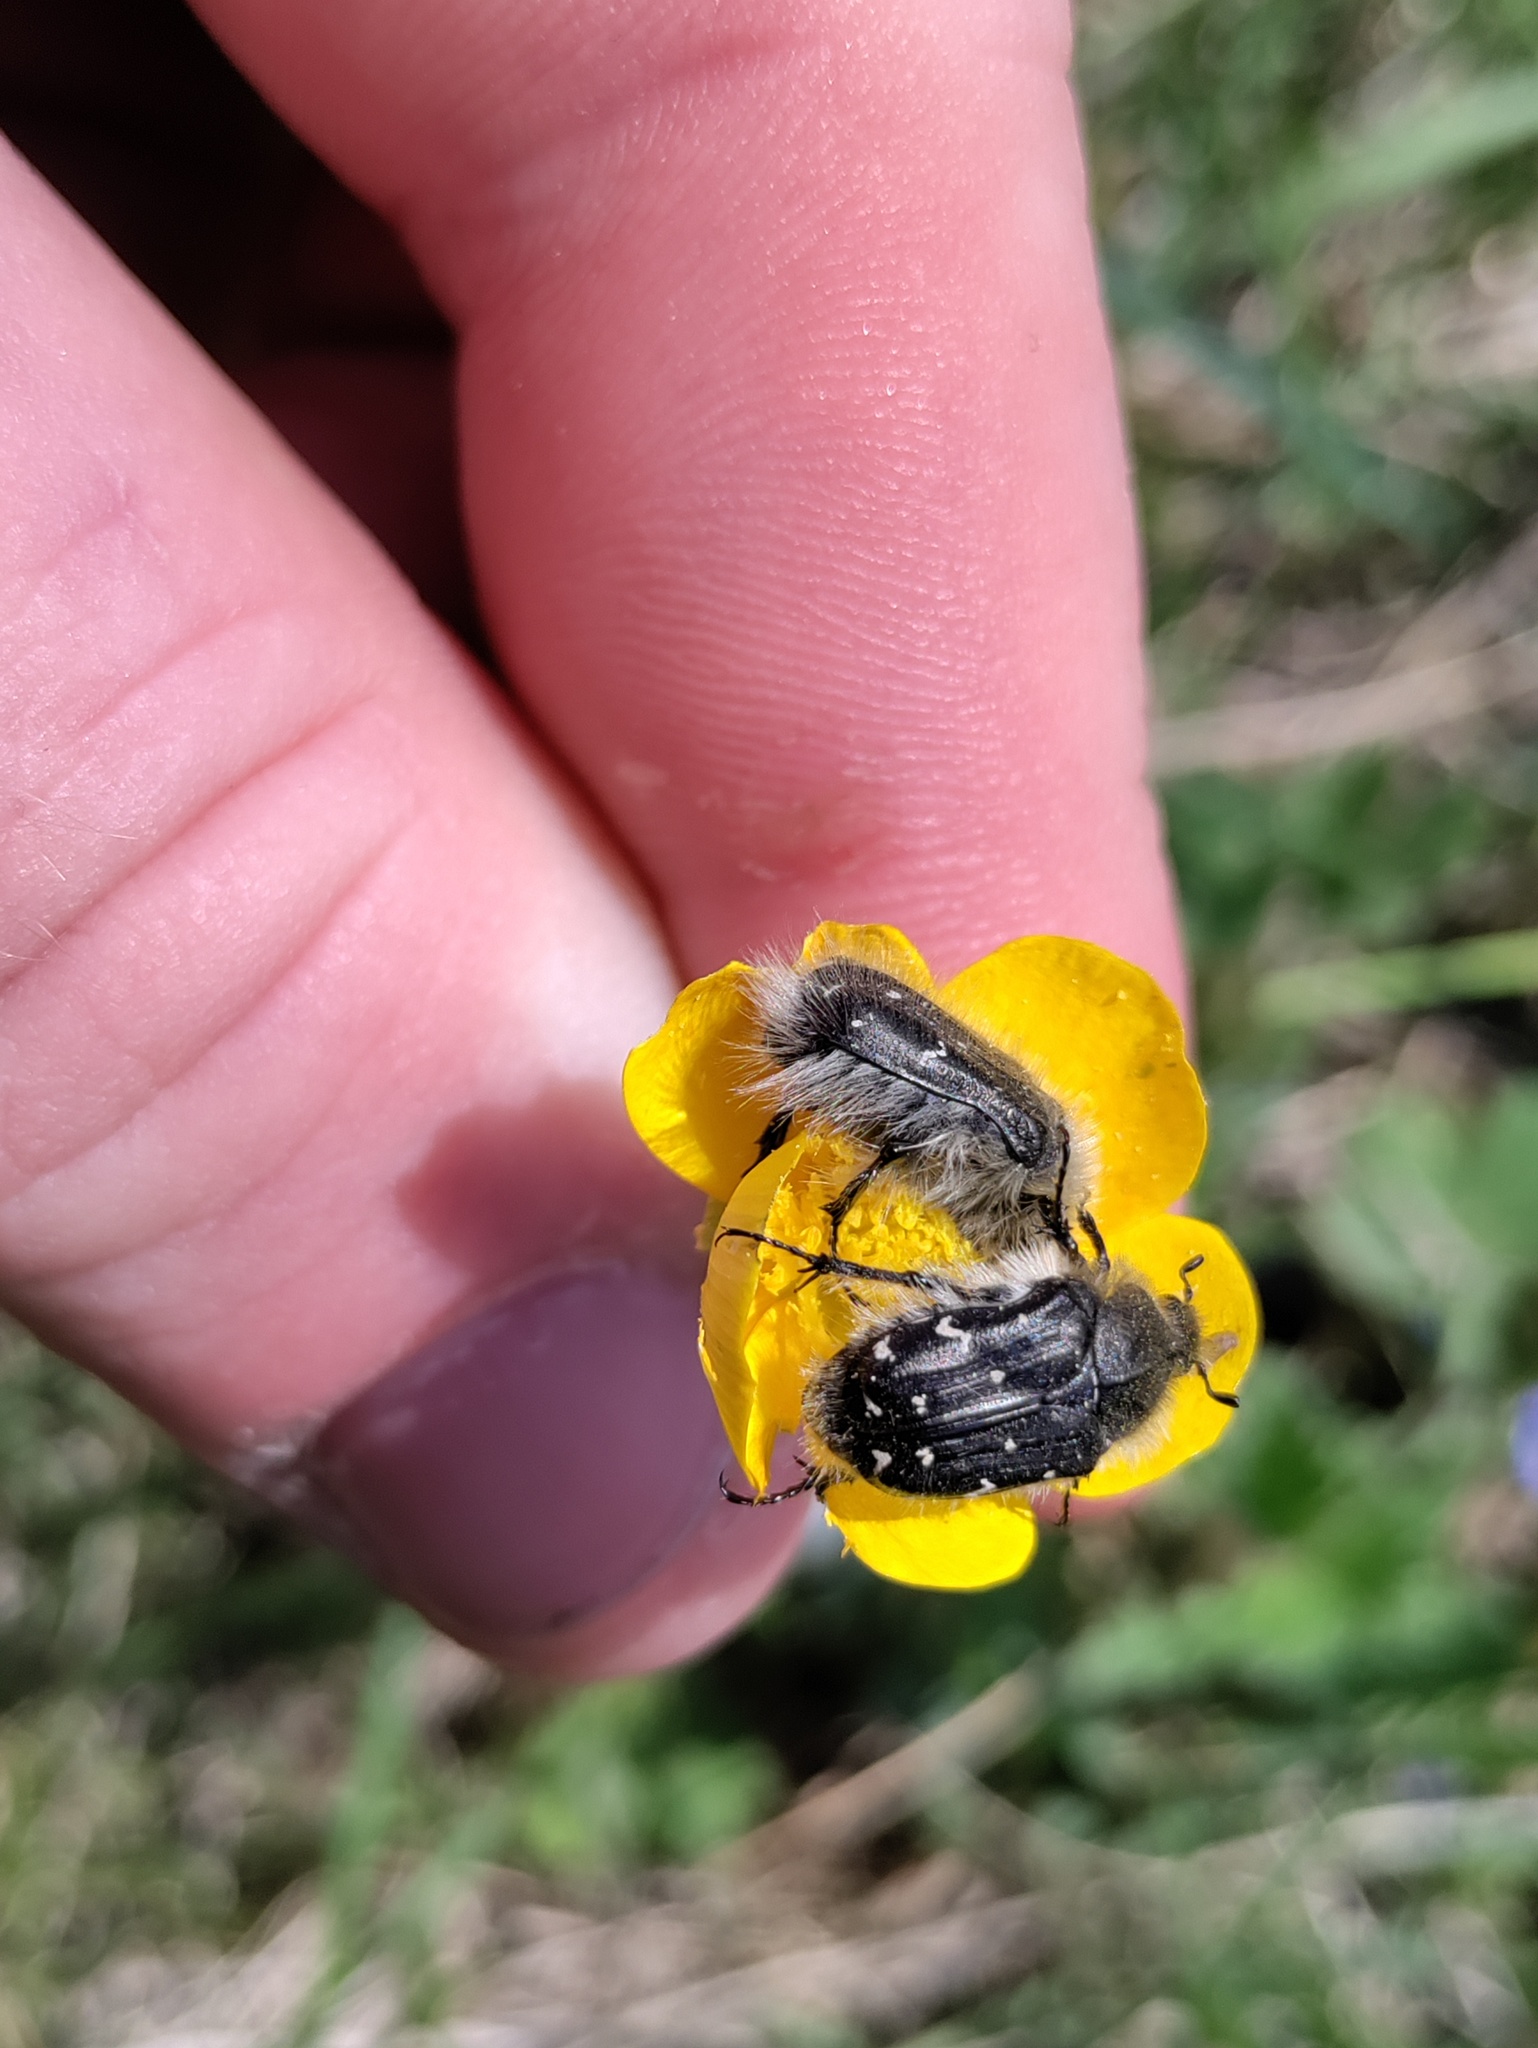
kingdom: Animalia
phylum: Arthropoda
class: Insecta
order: Coleoptera
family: Scarabaeidae
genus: Tropinota
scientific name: Tropinota hirta
